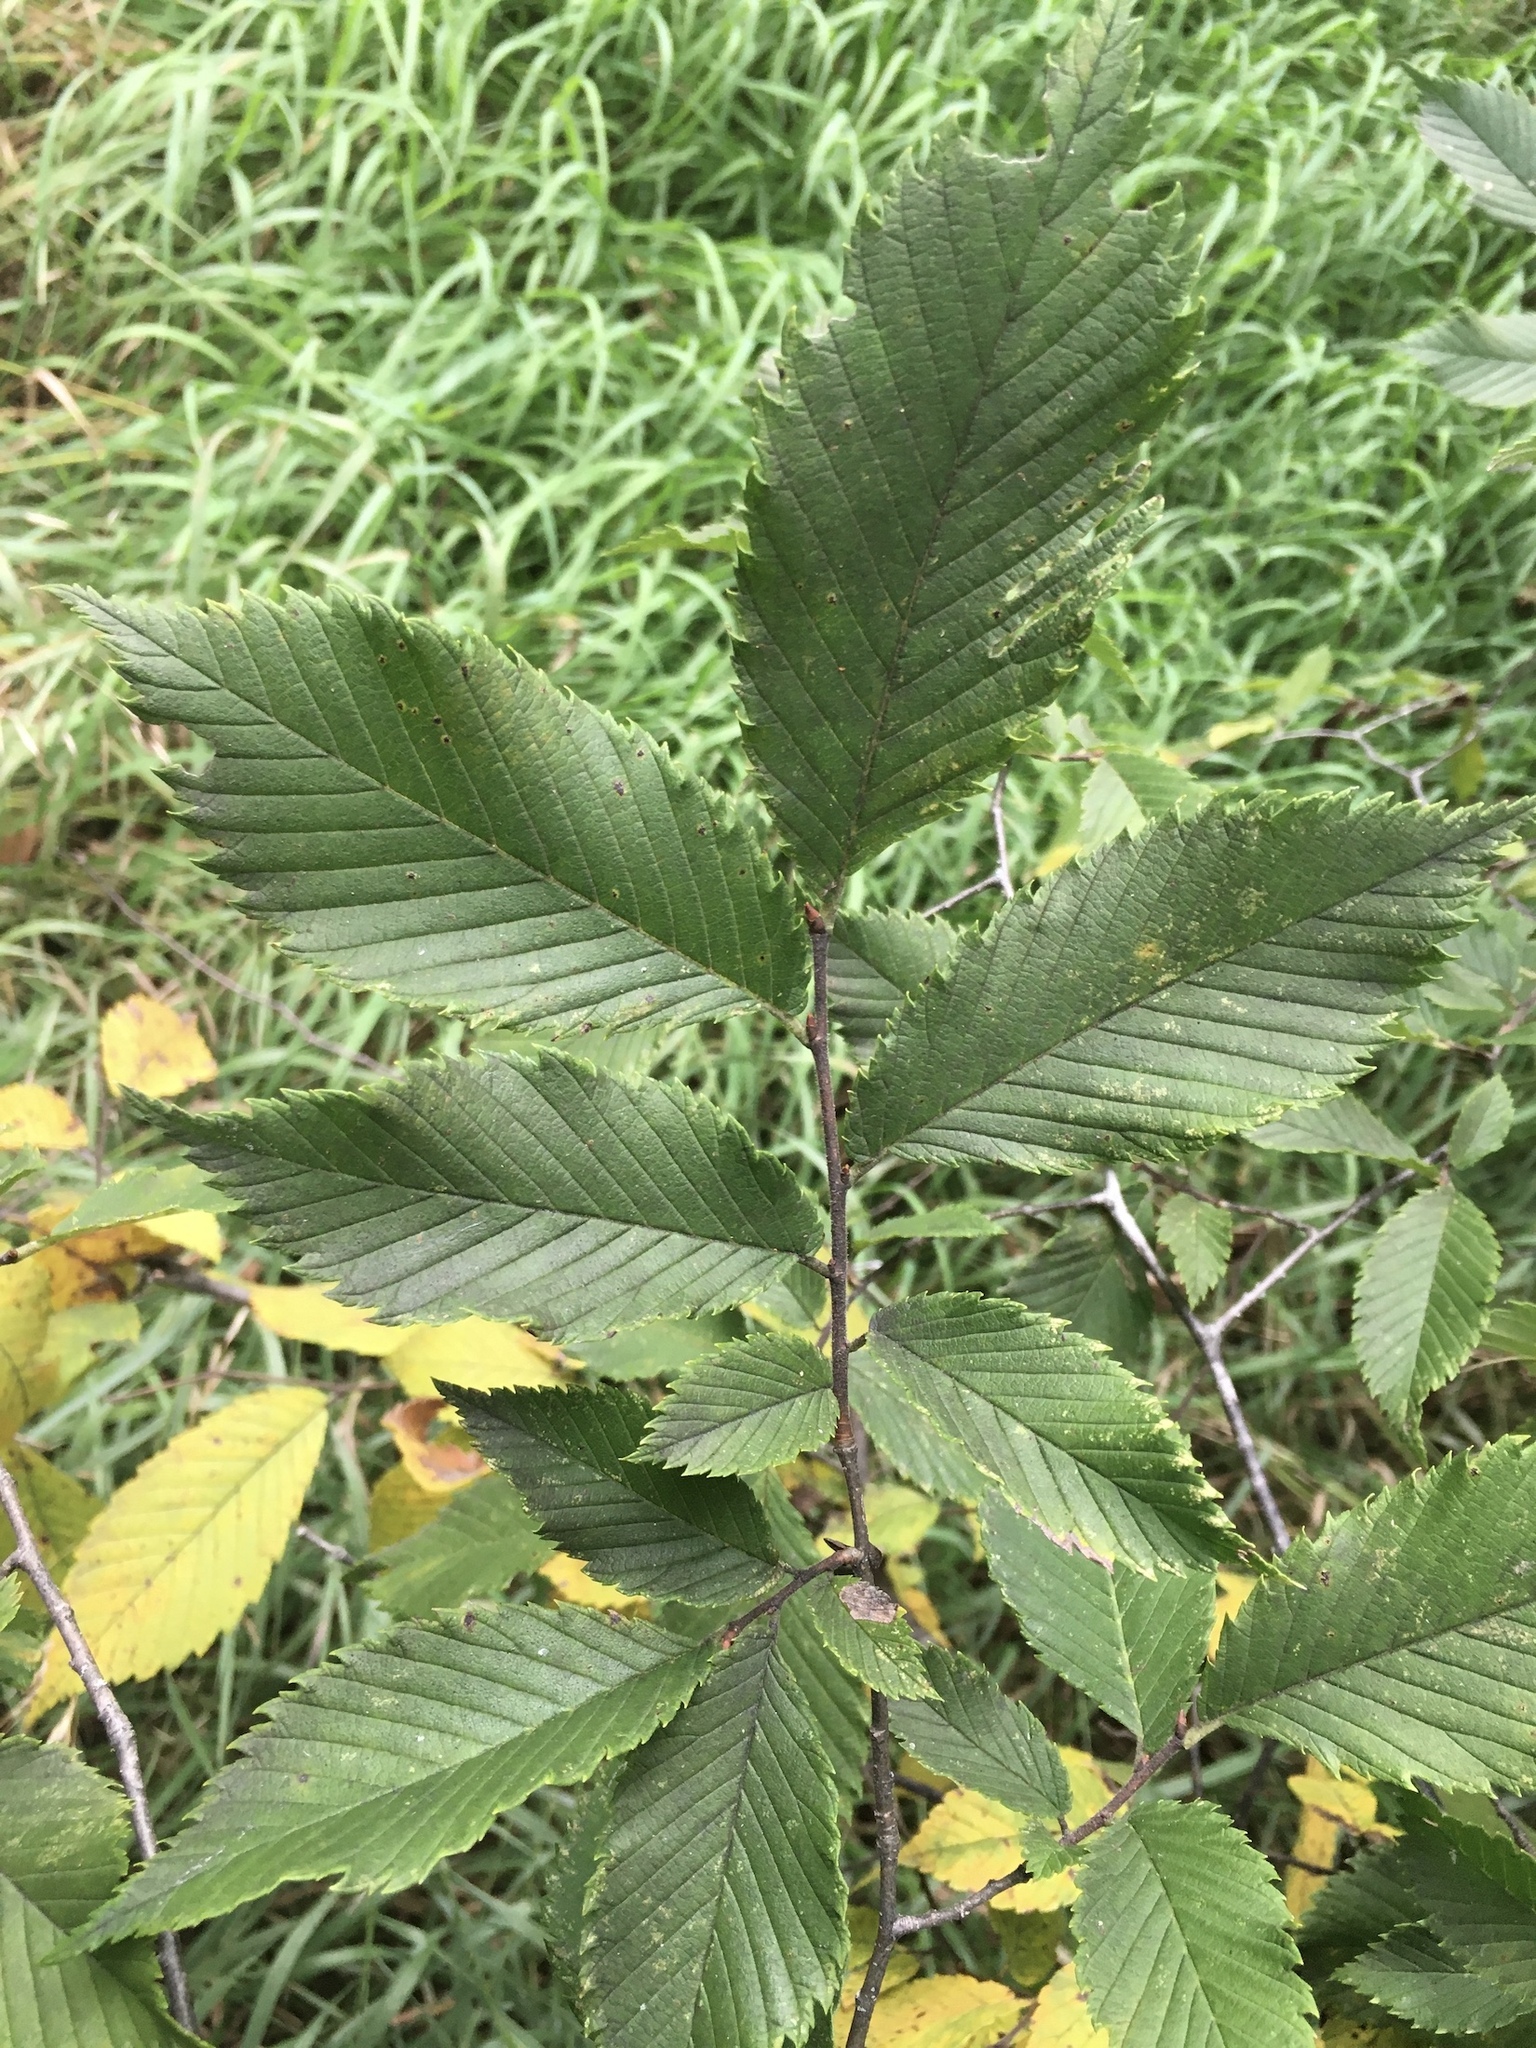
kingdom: Plantae
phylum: Tracheophyta
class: Magnoliopsida
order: Rosales
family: Ulmaceae
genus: Ulmus
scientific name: Ulmus americana
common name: American elm
